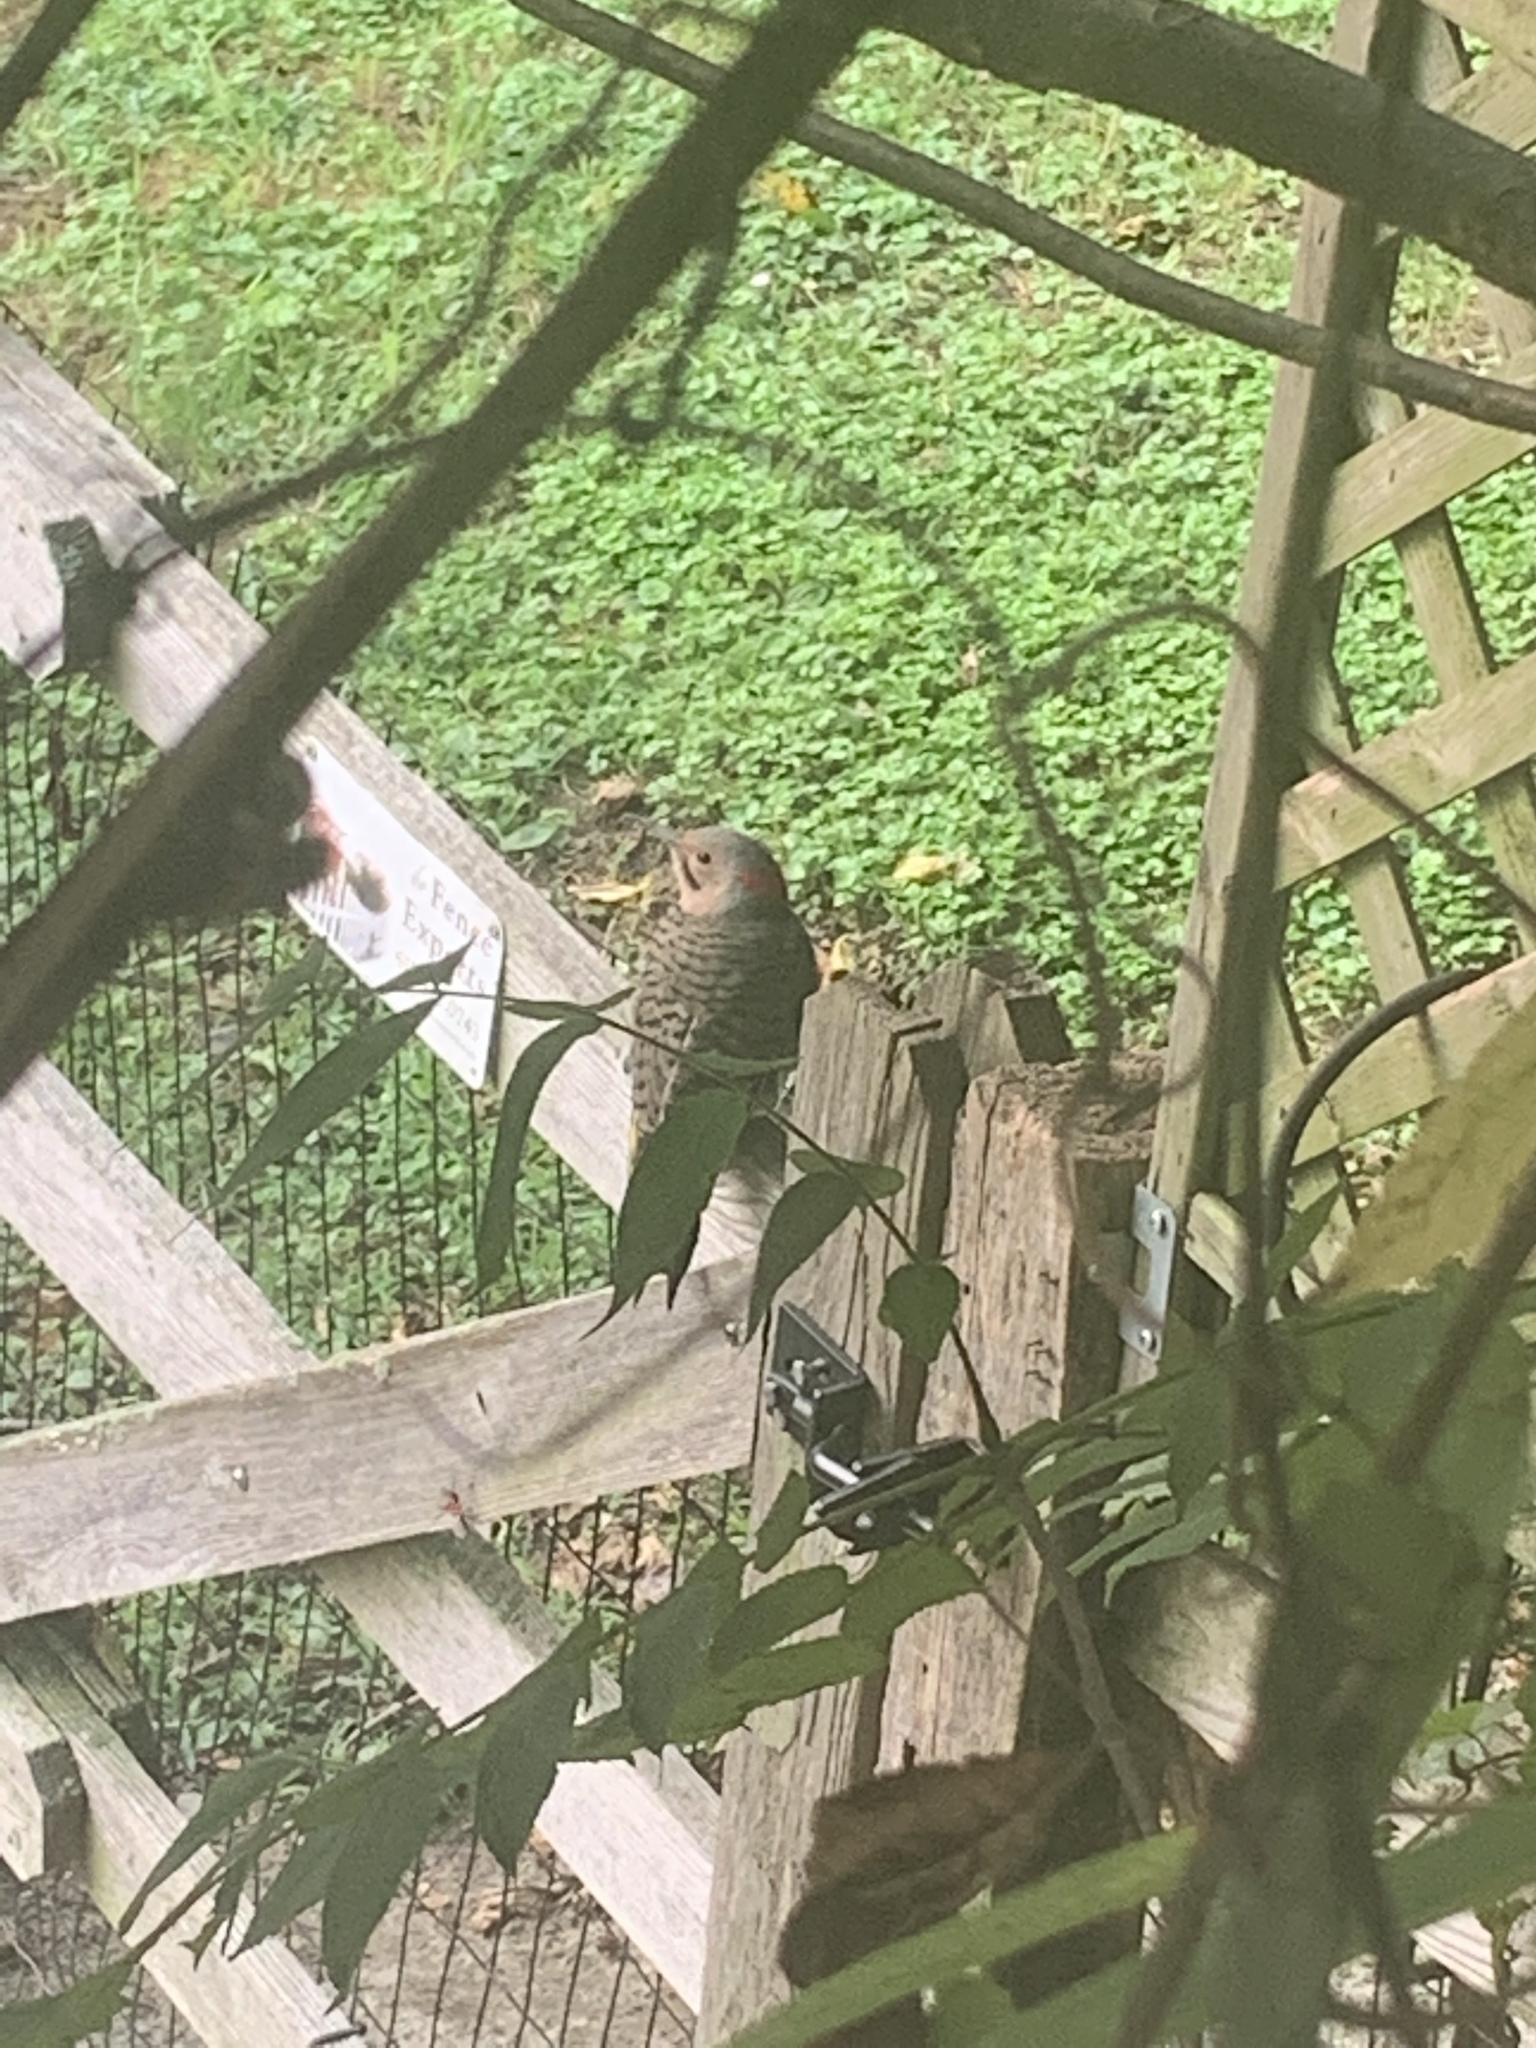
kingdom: Animalia
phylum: Chordata
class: Aves
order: Piciformes
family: Picidae
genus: Colaptes
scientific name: Colaptes auratus
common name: Northern flicker
